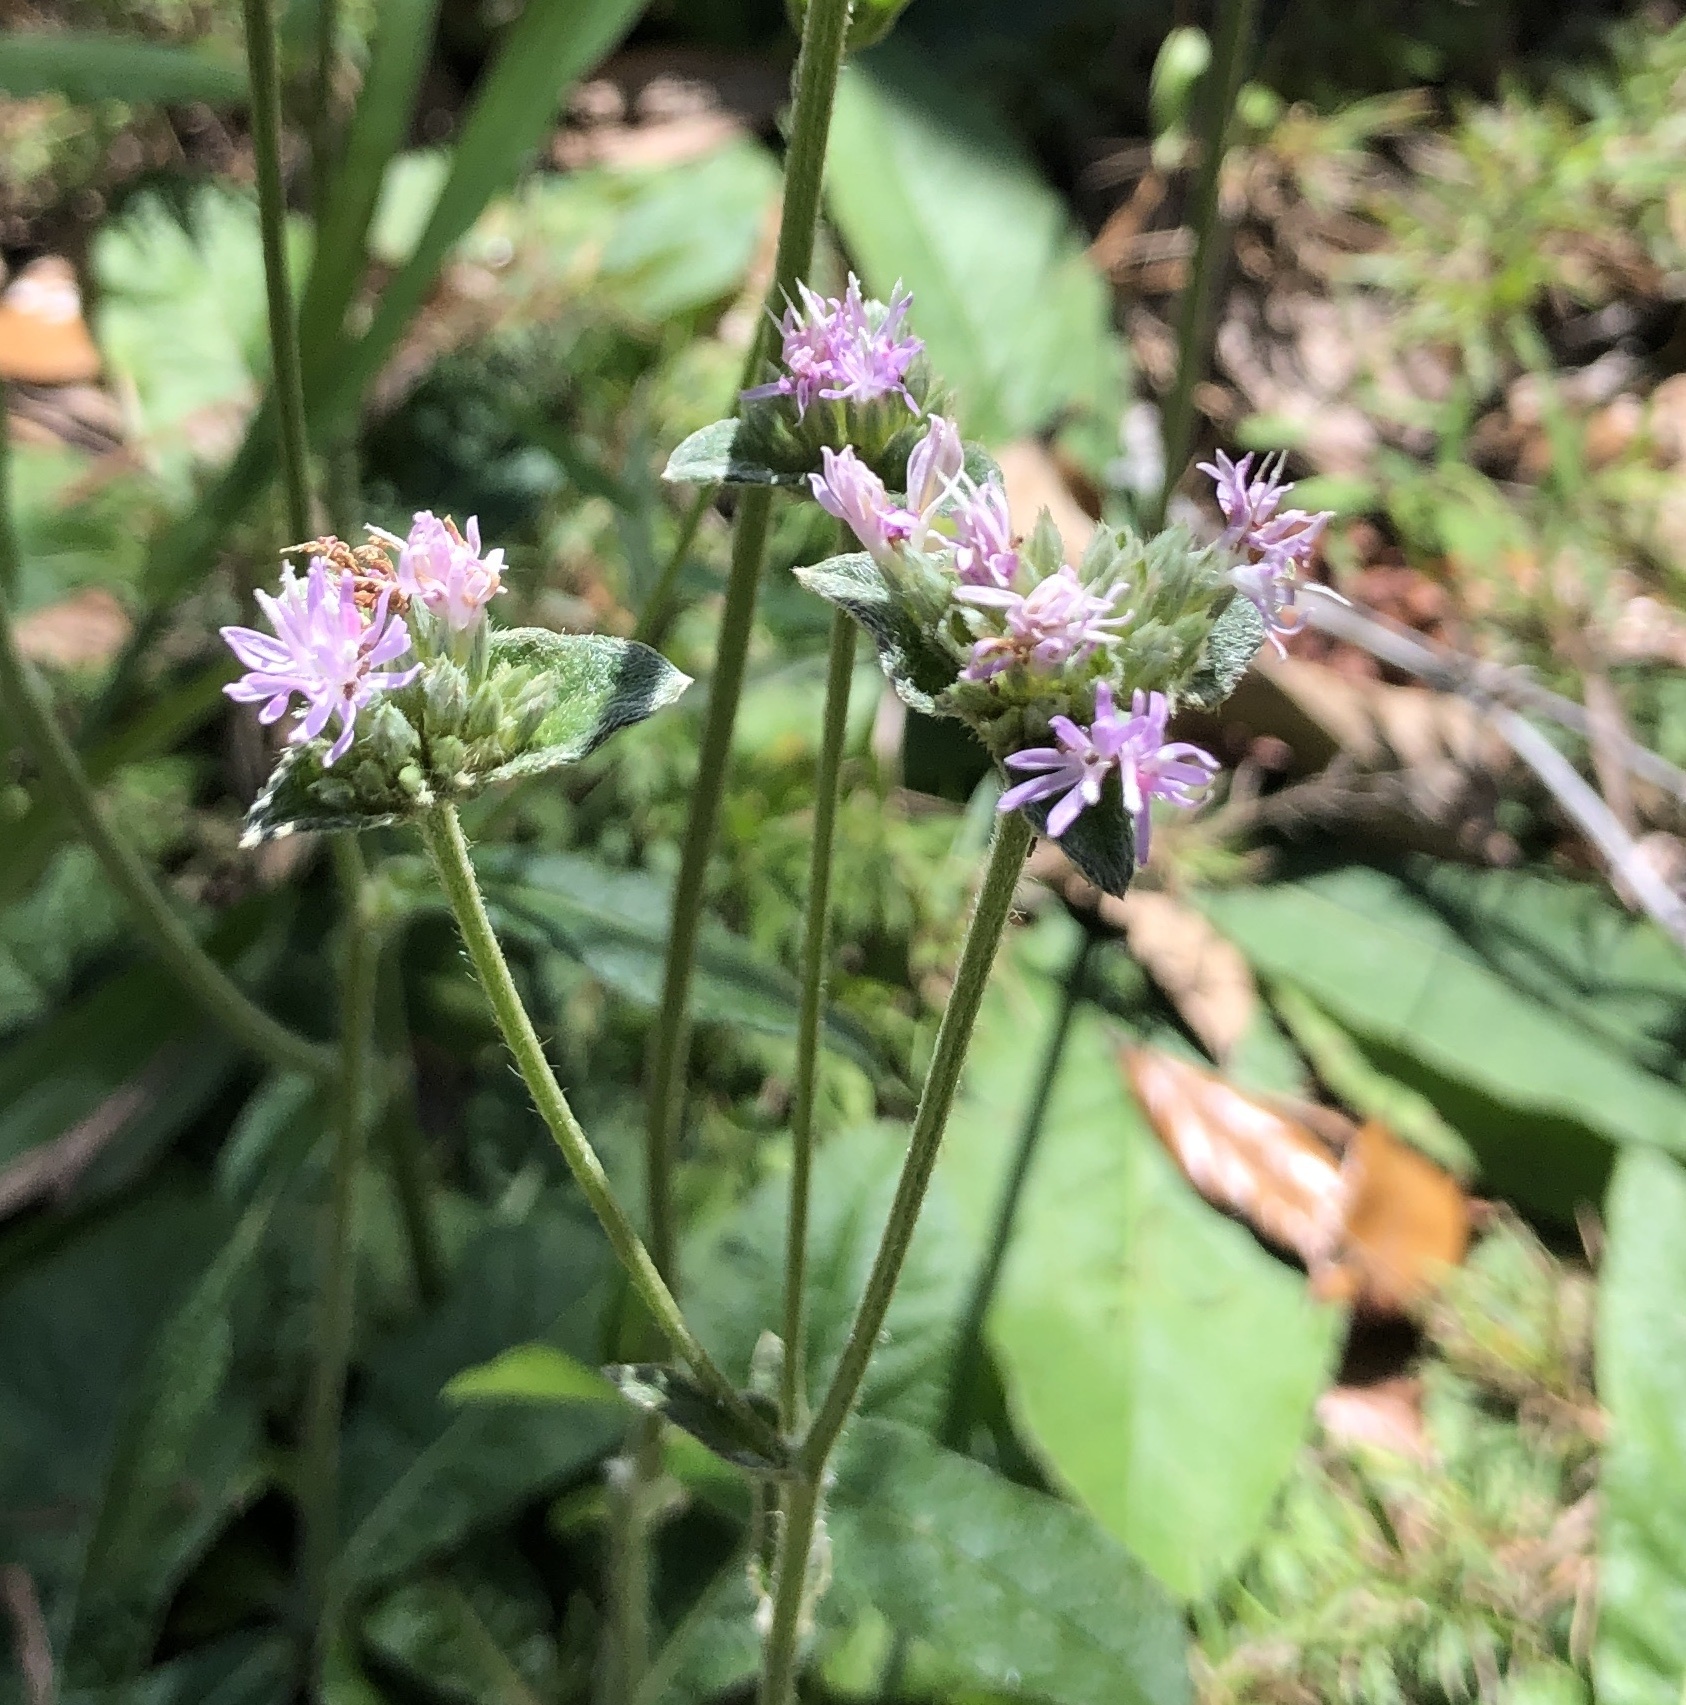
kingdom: Plantae
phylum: Tracheophyta
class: Magnoliopsida
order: Asterales
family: Asteraceae
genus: Elephantopus
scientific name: Elephantopus elatus
